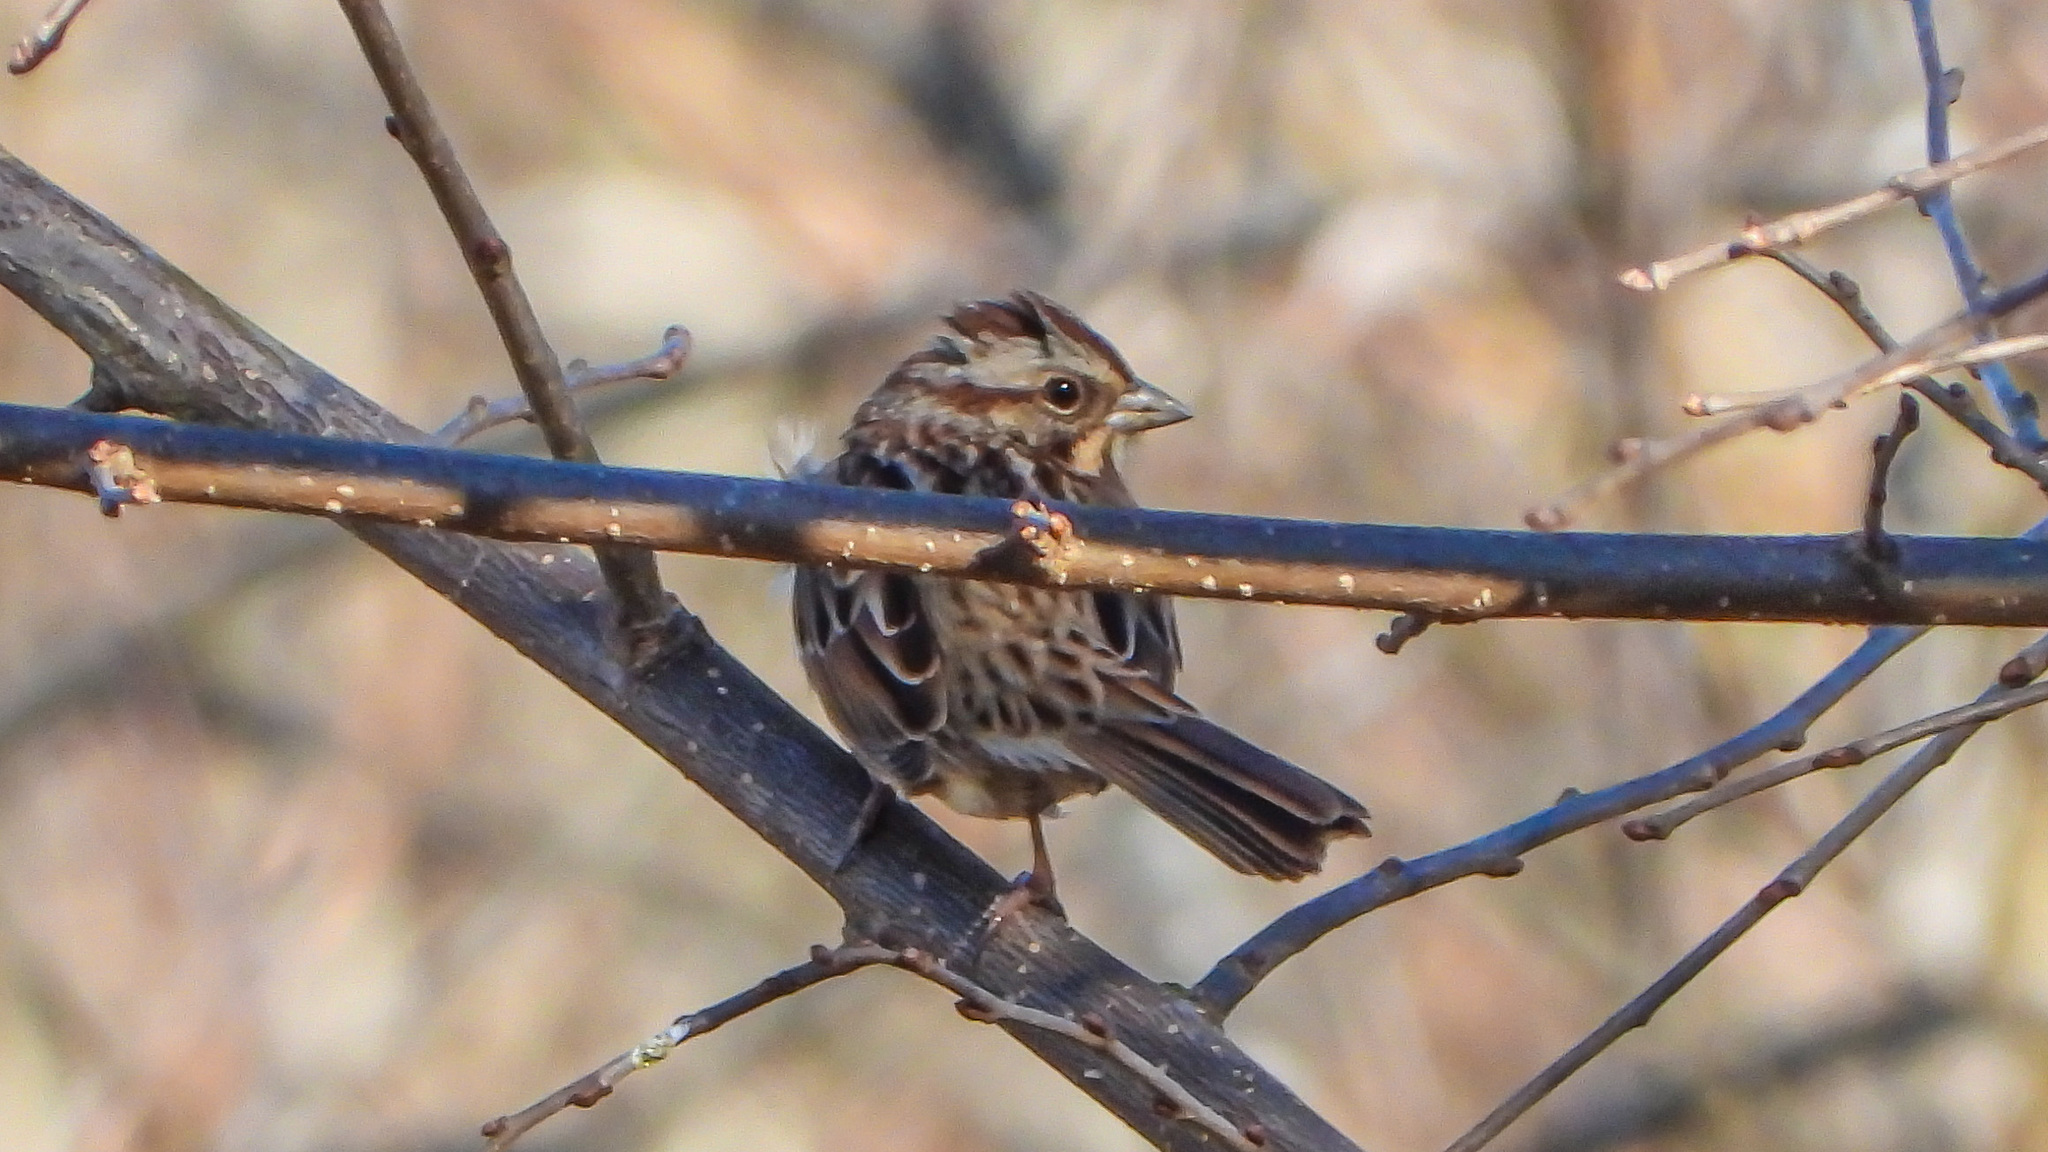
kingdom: Animalia
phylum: Chordata
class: Aves
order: Passeriformes
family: Passerellidae
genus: Melospiza
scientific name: Melospiza melodia
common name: Song sparrow
